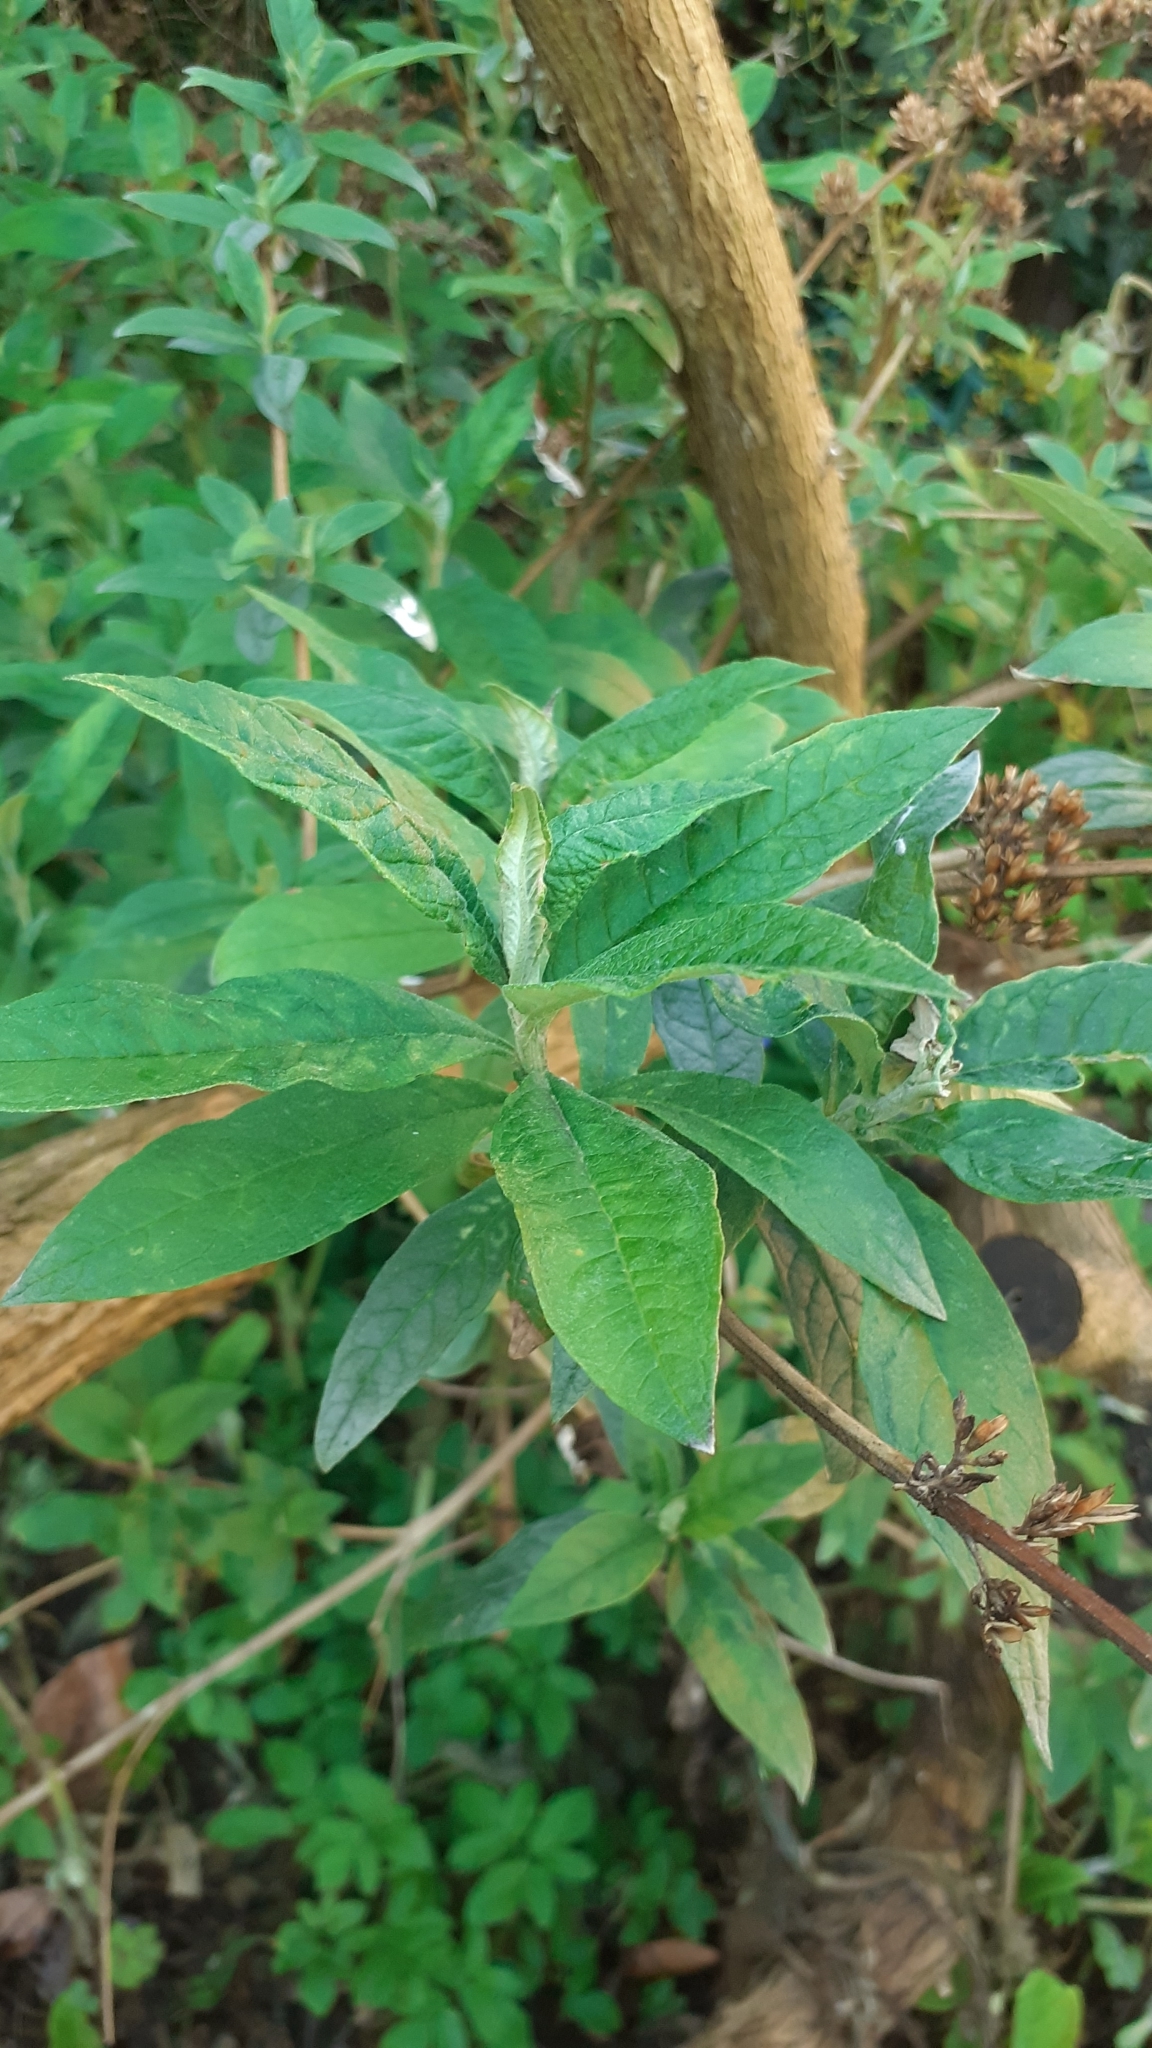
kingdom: Plantae
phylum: Tracheophyta
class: Magnoliopsida
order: Lamiales
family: Scrophulariaceae
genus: Buddleja
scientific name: Buddleja davidii
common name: Butterfly-bush
